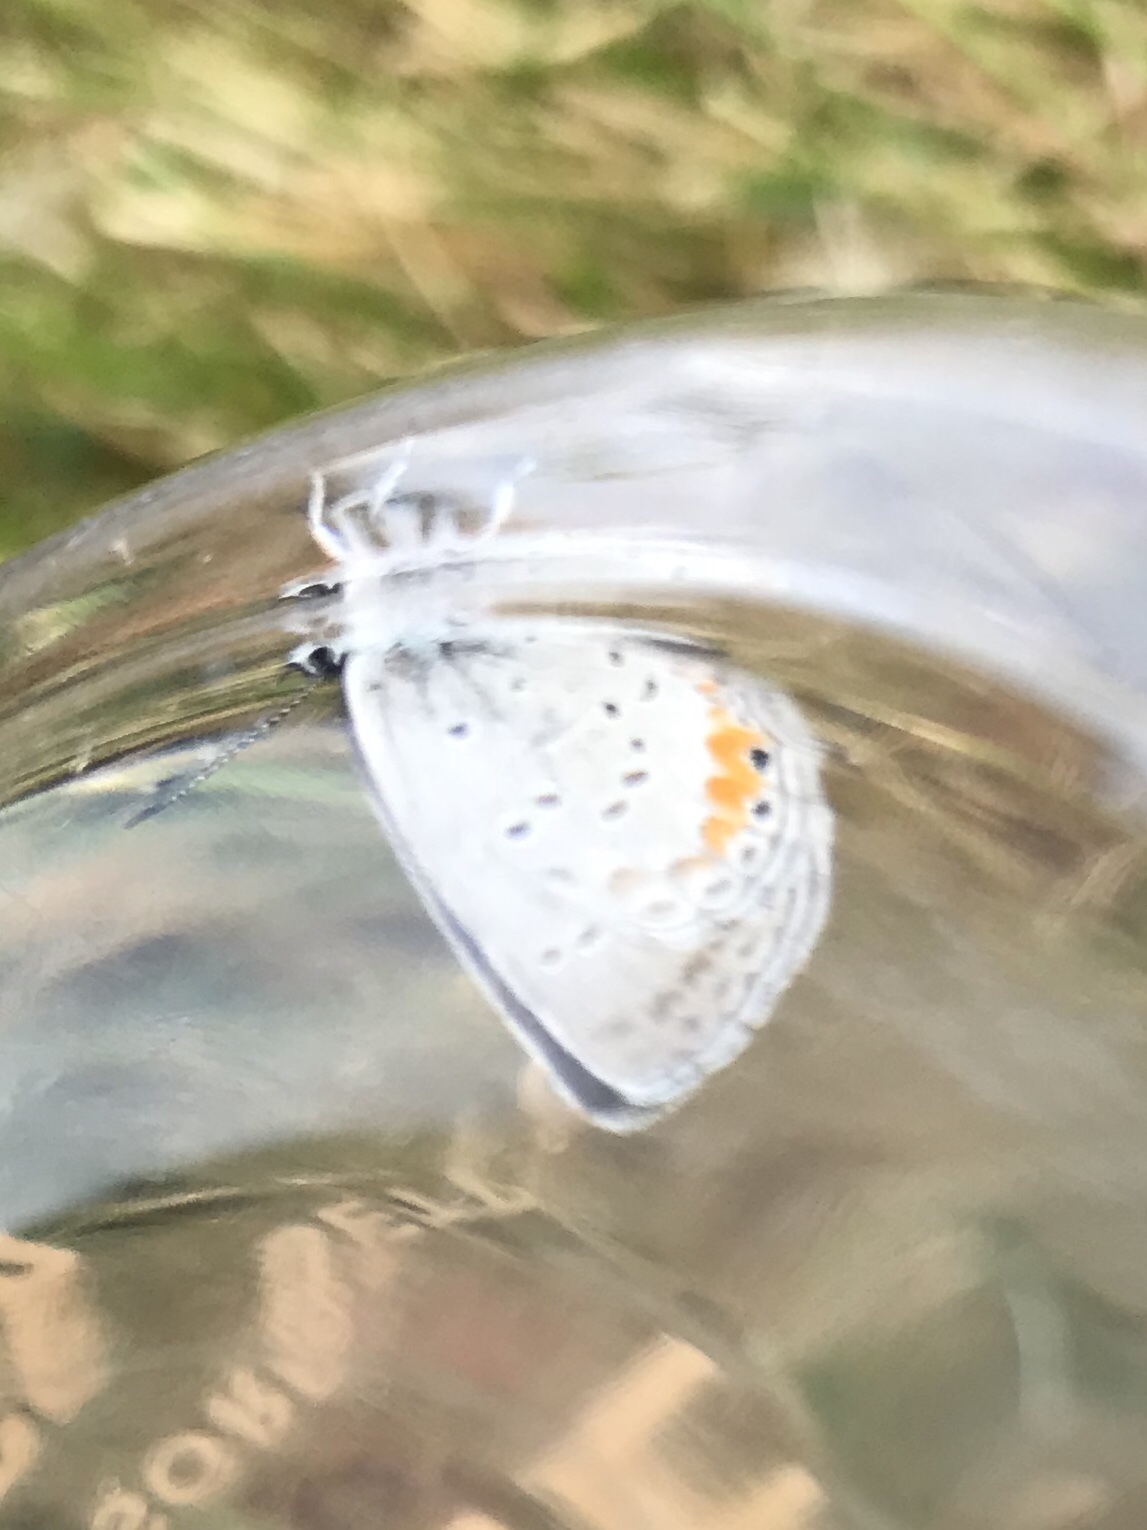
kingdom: Animalia
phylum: Arthropoda
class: Insecta
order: Lepidoptera
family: Lycaenidae
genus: Elkalyce
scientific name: Elkalyce comyntas
